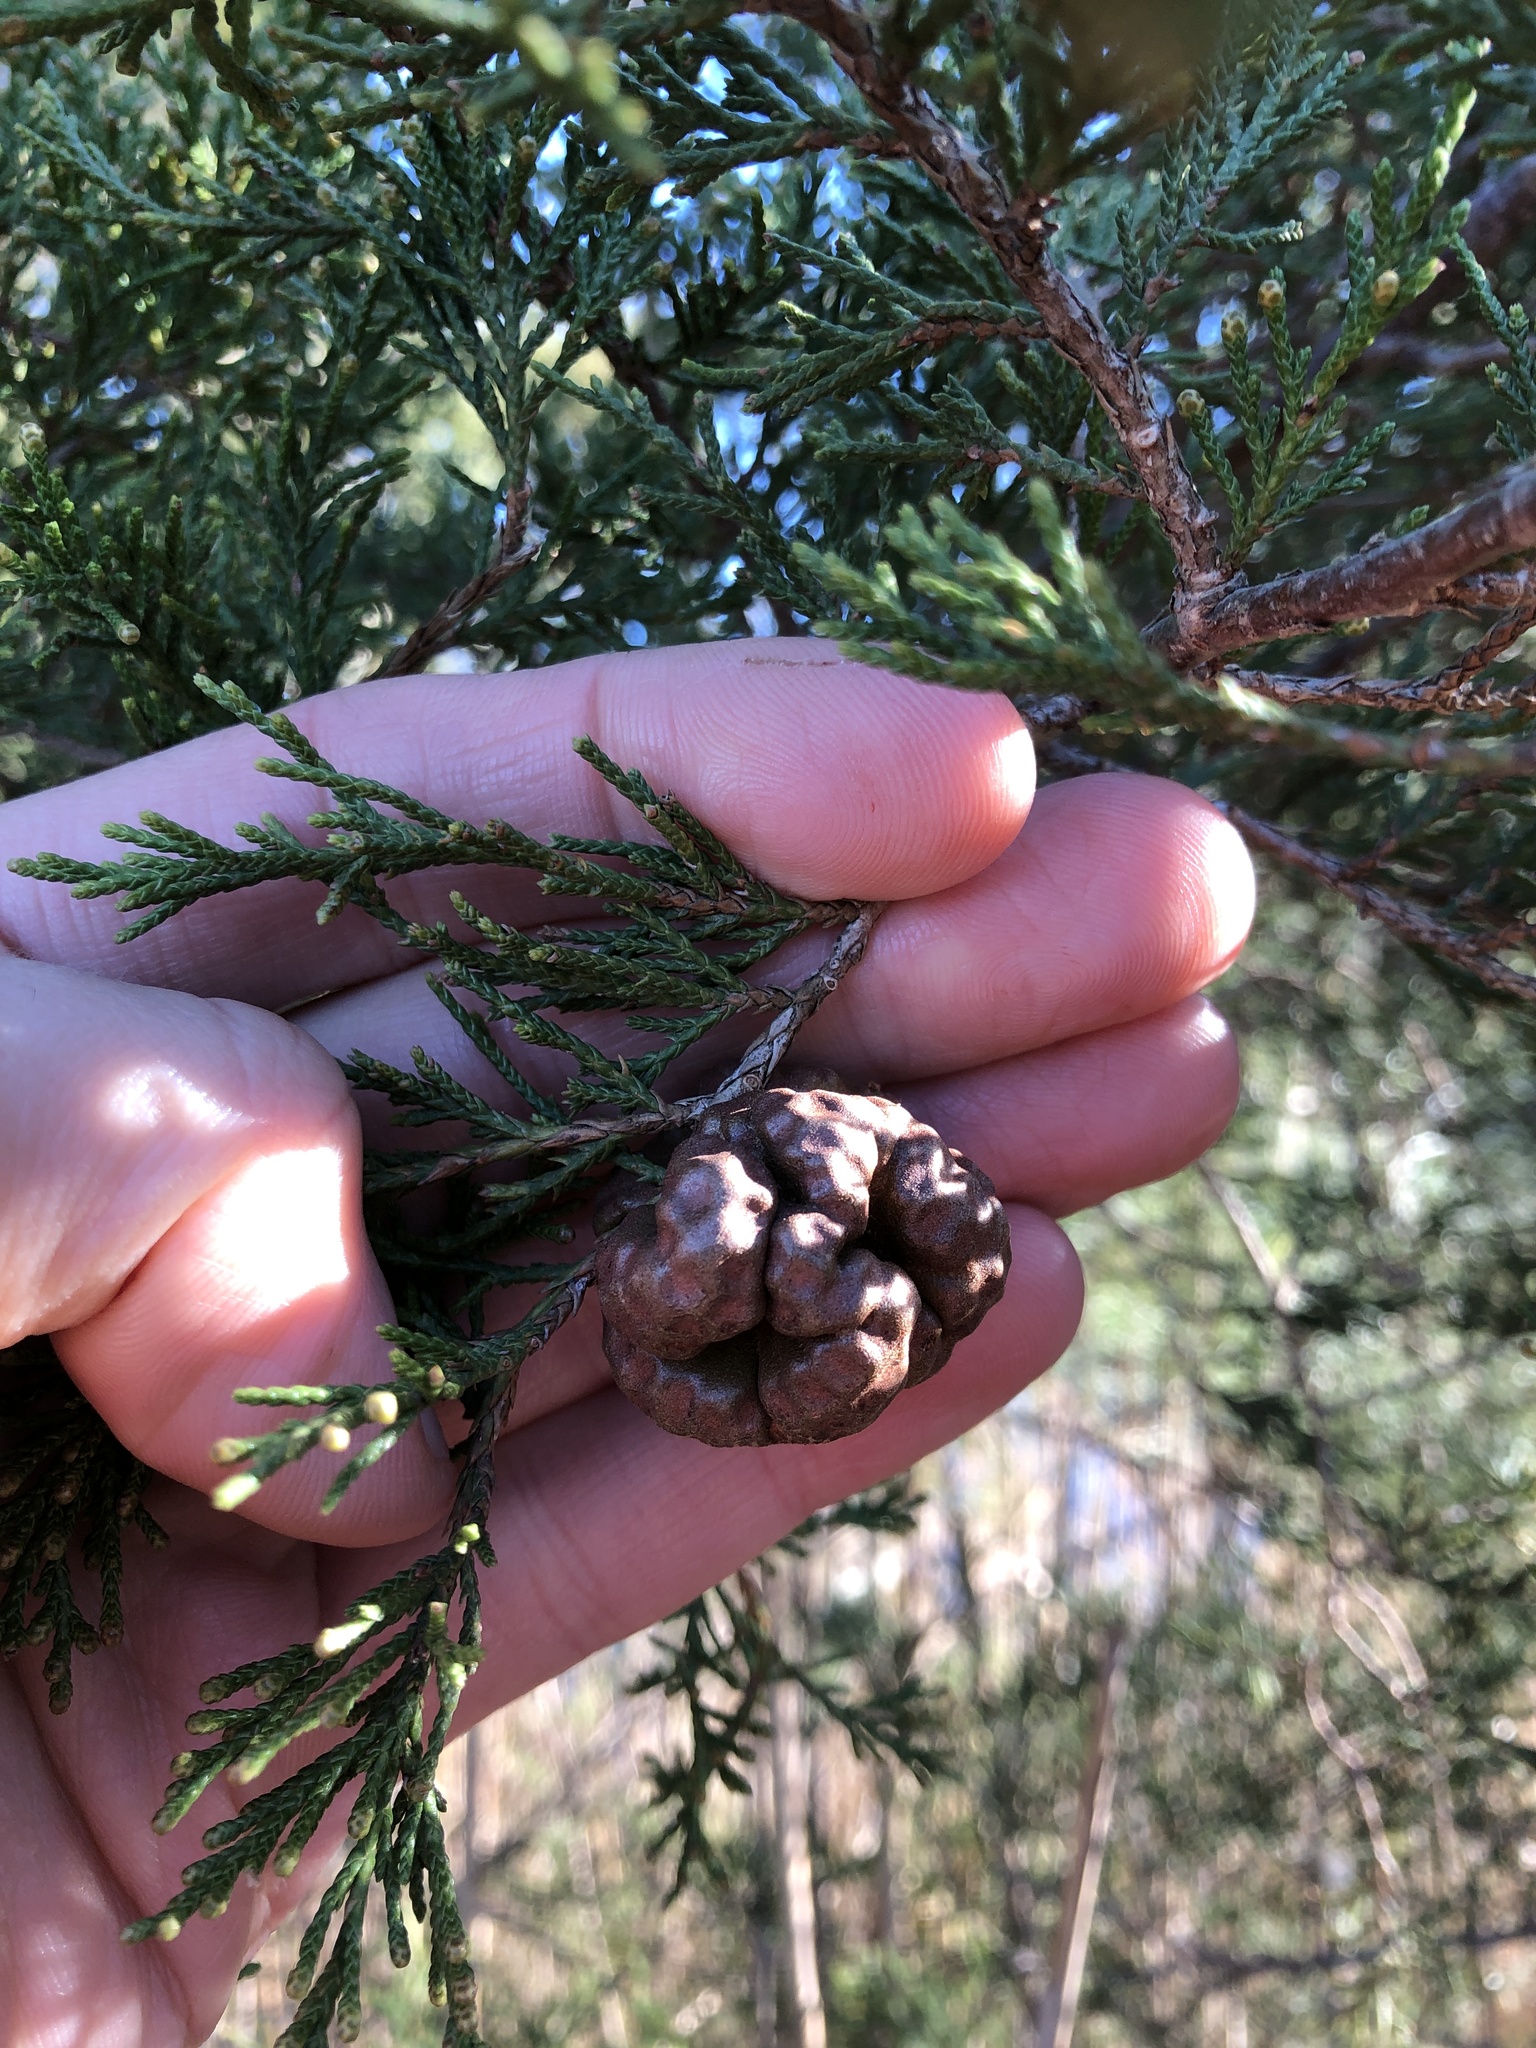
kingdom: Fungi
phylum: Basidiomycota
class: Pucciniomycetes
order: Pucciniales
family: Gymnosporangiaceae
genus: Gymnosporangium
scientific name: Gymnosporangium juniperi-virginianae
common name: Juniper-apple rust
